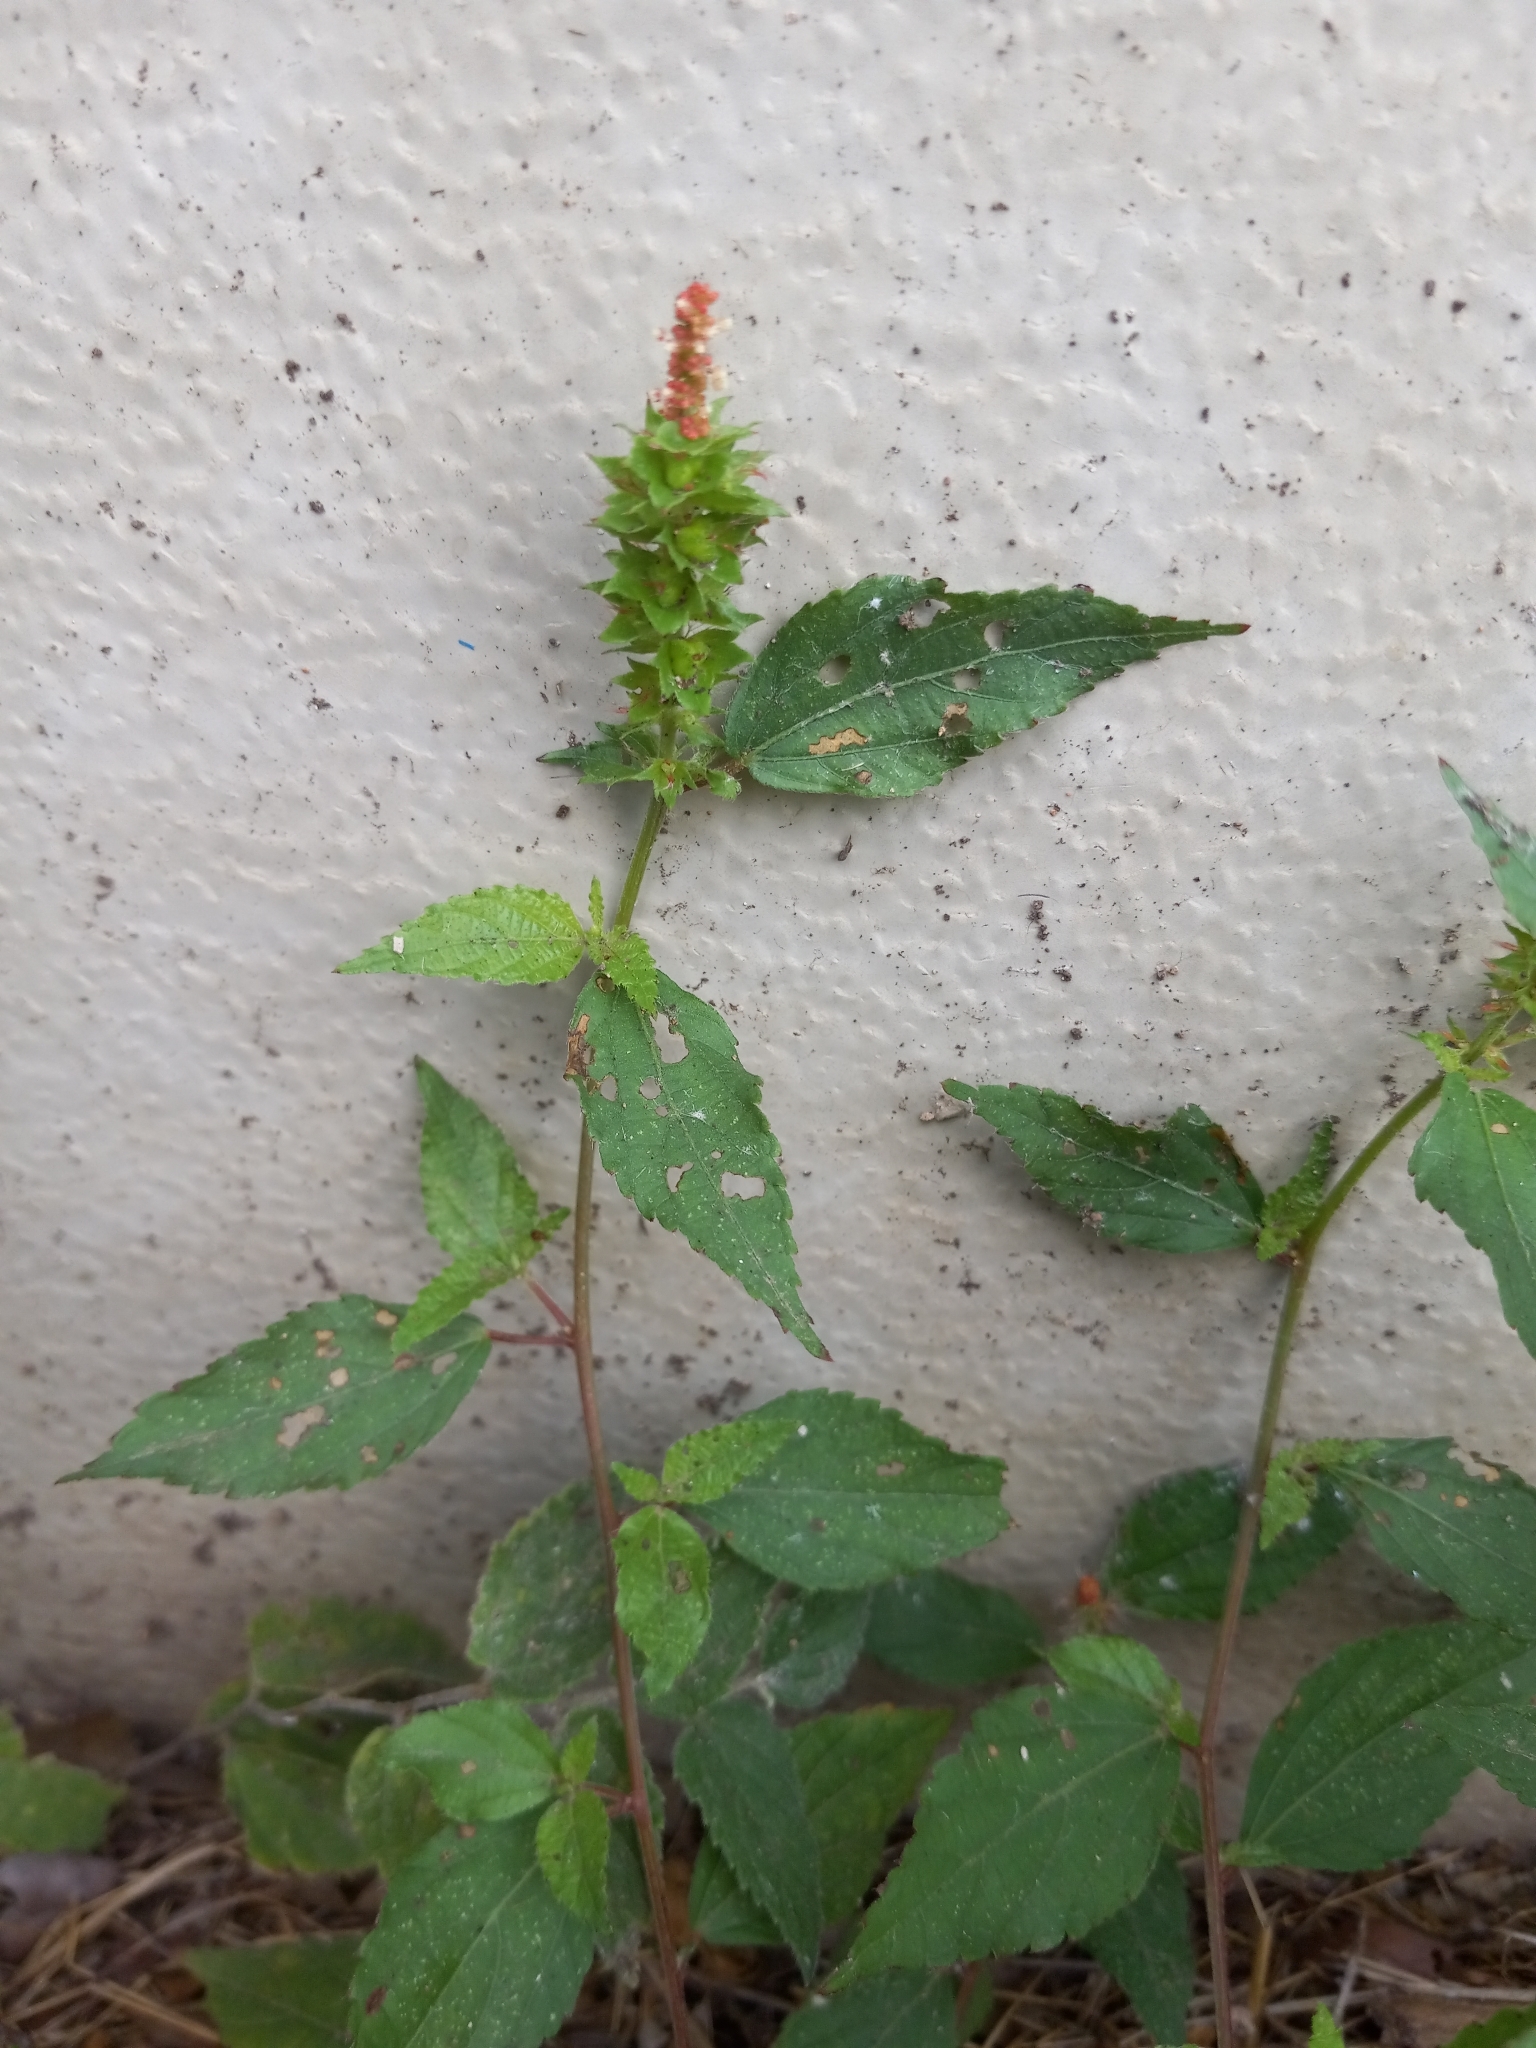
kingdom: Plantae
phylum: Tracheophyta
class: Magnoliopsida
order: Malpighiales
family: Euphorbiaceae
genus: Acalypha
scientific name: Acalypha phleoides
